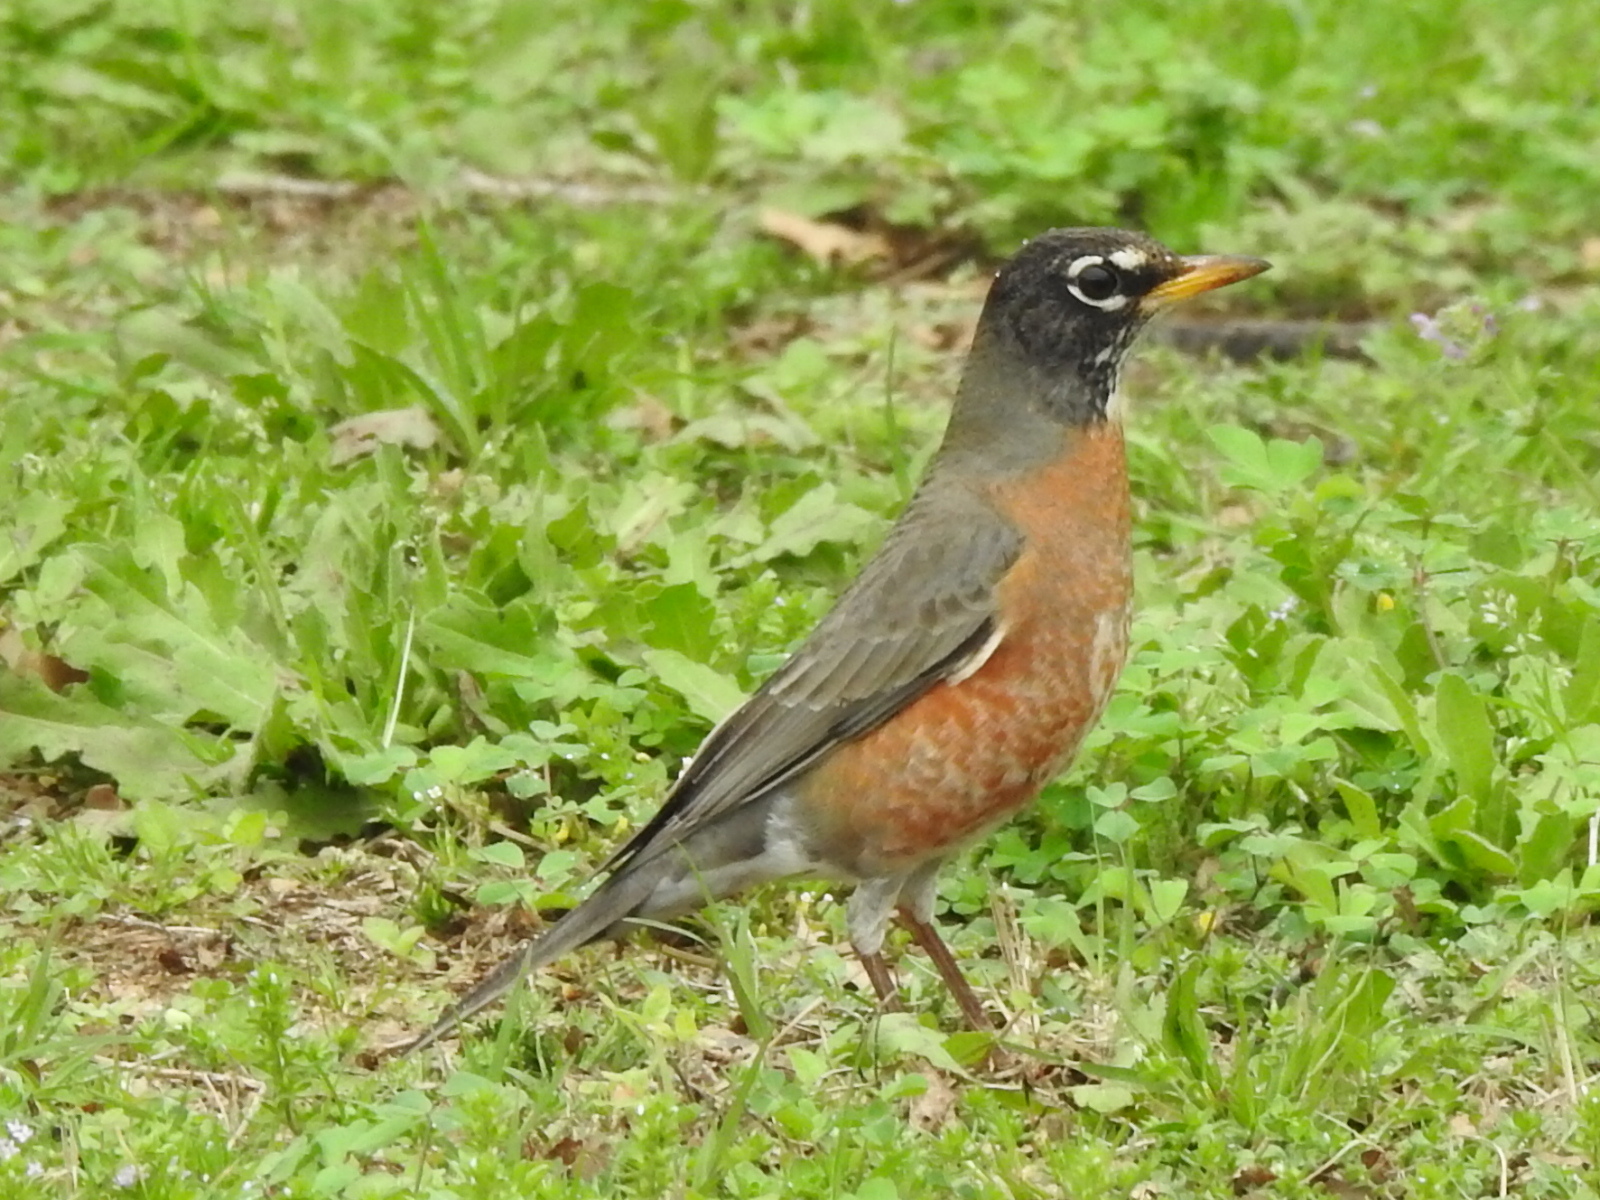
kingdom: Animalia
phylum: Chordata
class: Aves
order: Passeriformes
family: Turdidae
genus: Turdus
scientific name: Turdus migratorius
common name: American robin
